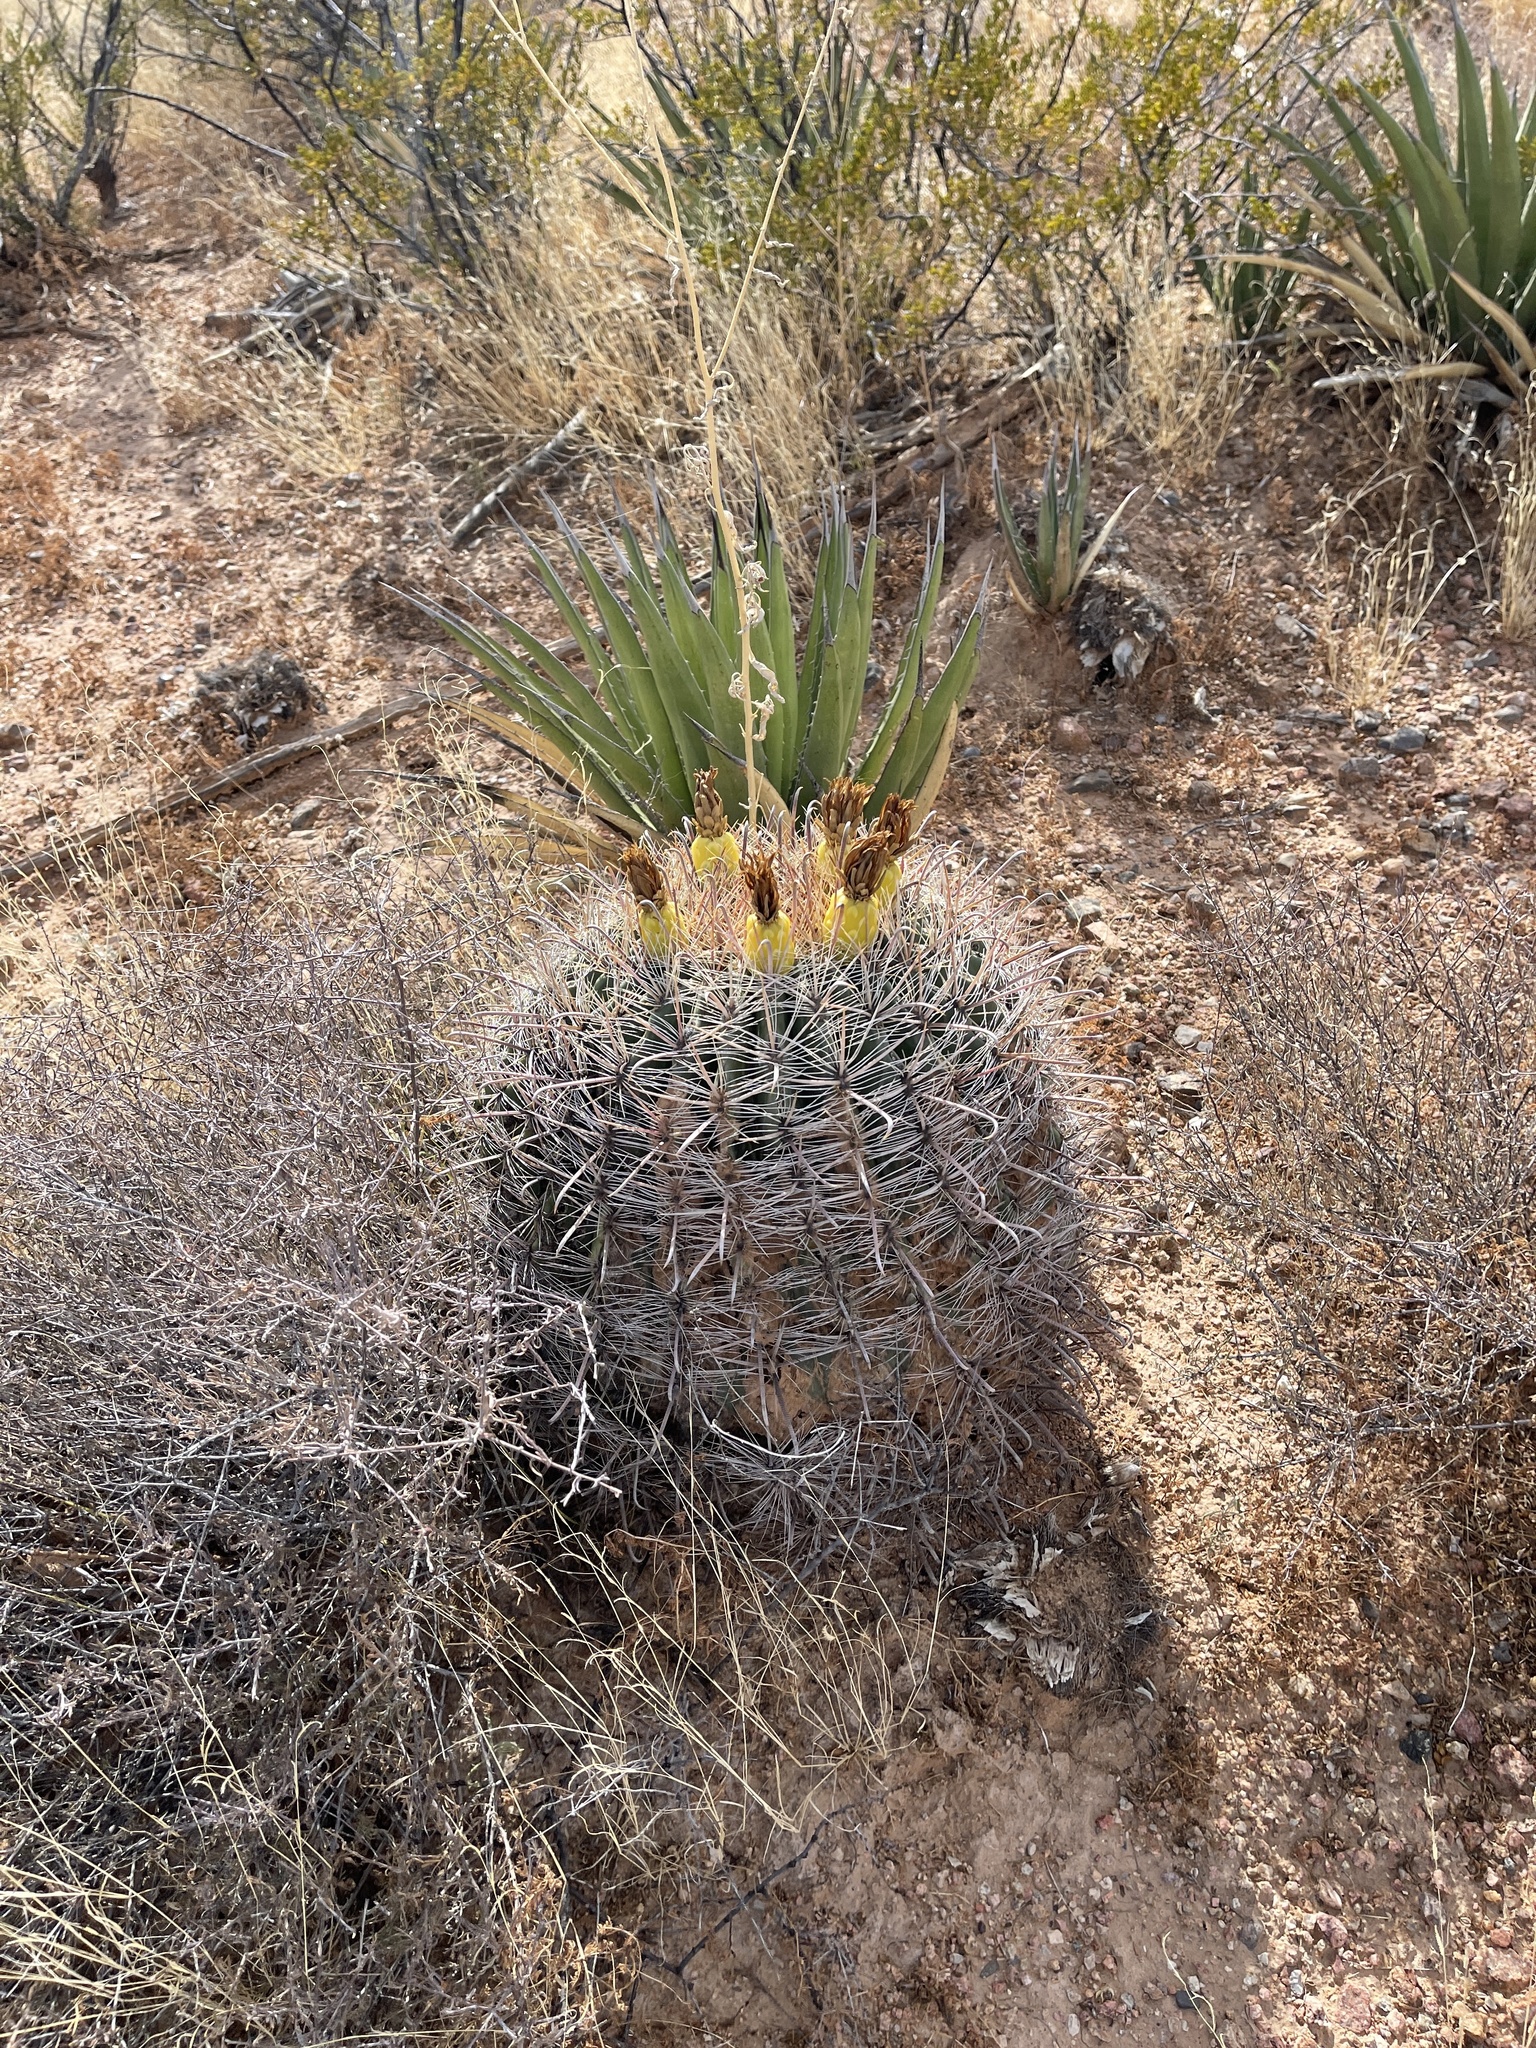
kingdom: Plantae
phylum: Tracheophyta
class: Magnoliopsida
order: Caryophyllales
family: Cactaceae
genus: Ferocactus
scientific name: Ferocactus wislizeni
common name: Candy barrel cactus
